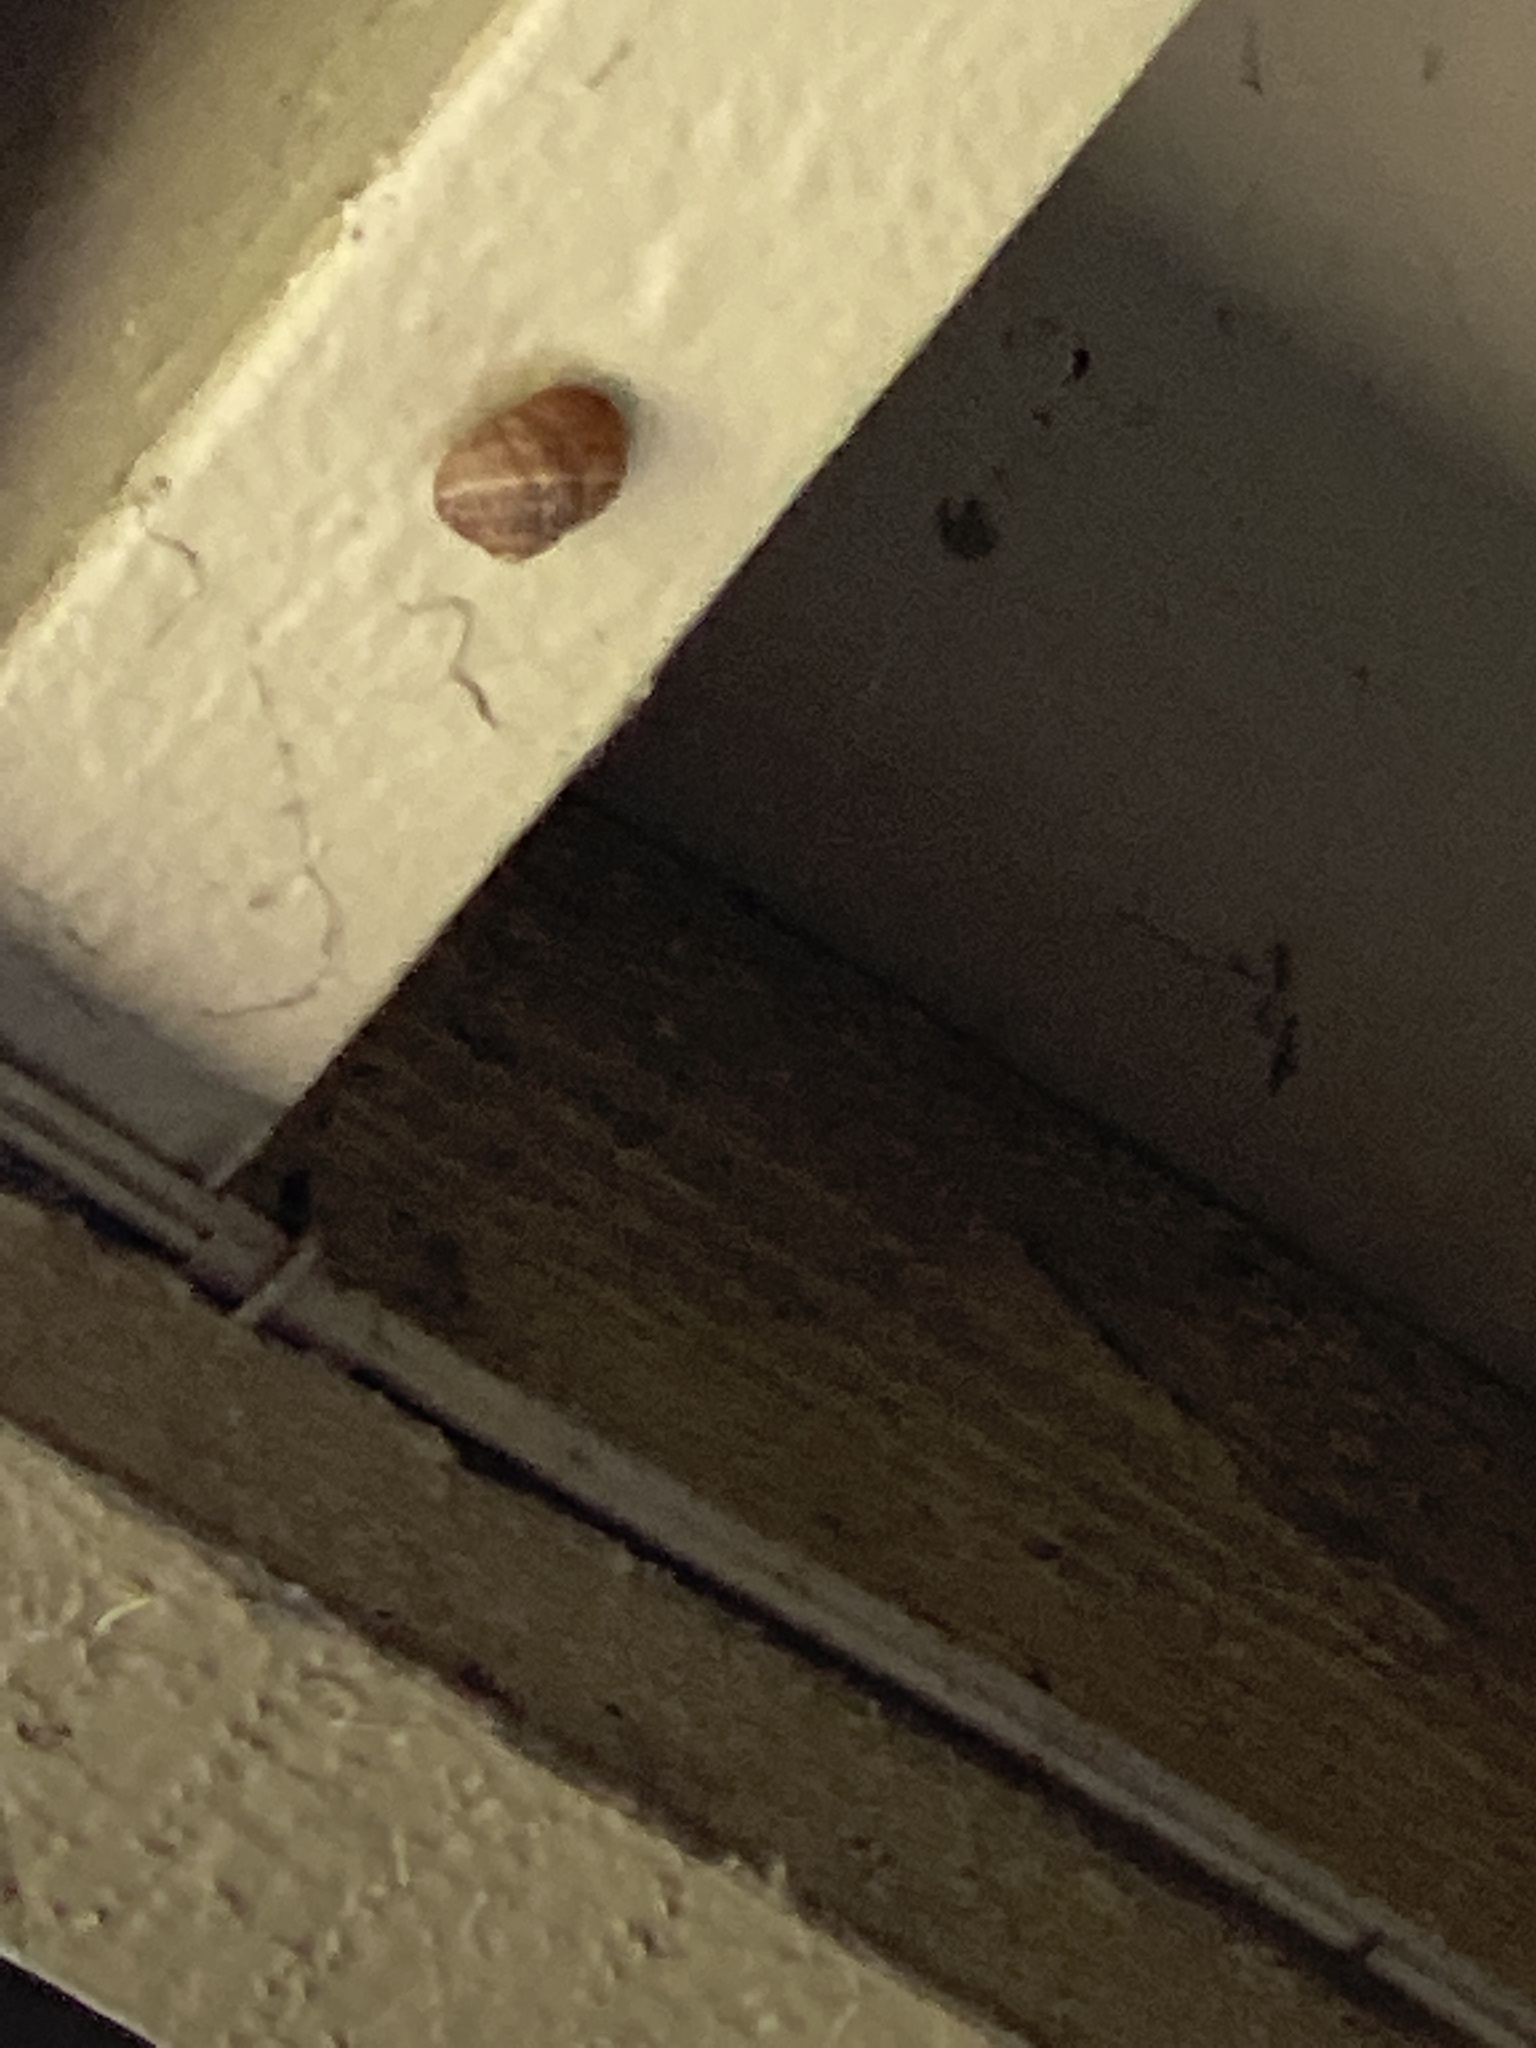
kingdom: Animalia
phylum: Mollusca
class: Gastropoda
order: Stylommatophora
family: Helicidae
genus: Cornu
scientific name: Cornu aspersum
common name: Brown garden snail
